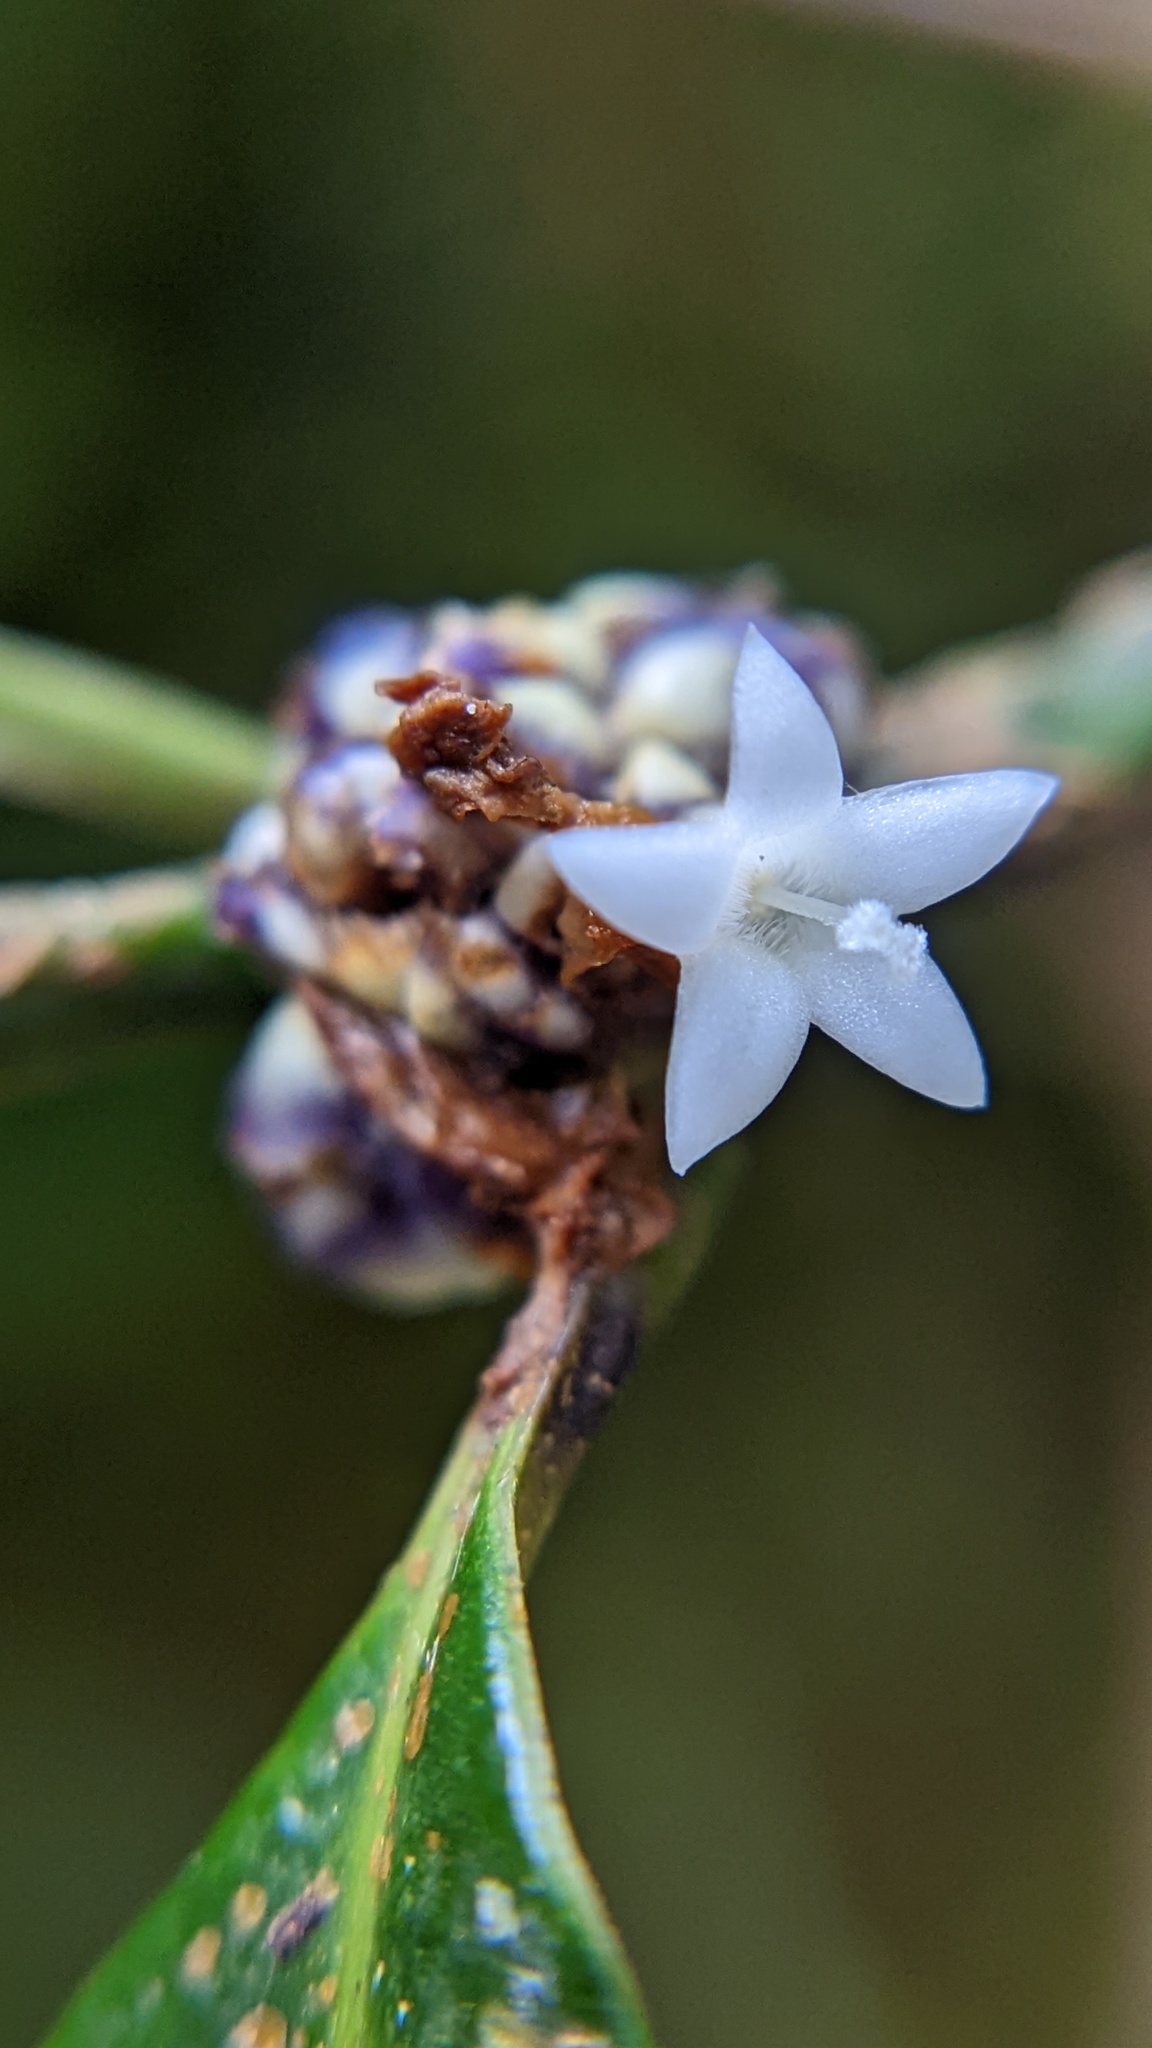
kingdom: Plantae
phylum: Tracheophyta
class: Magnoliopsida
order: Gentianales
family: Rubiaceae
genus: Palicourea
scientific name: Palicourea axillaris
